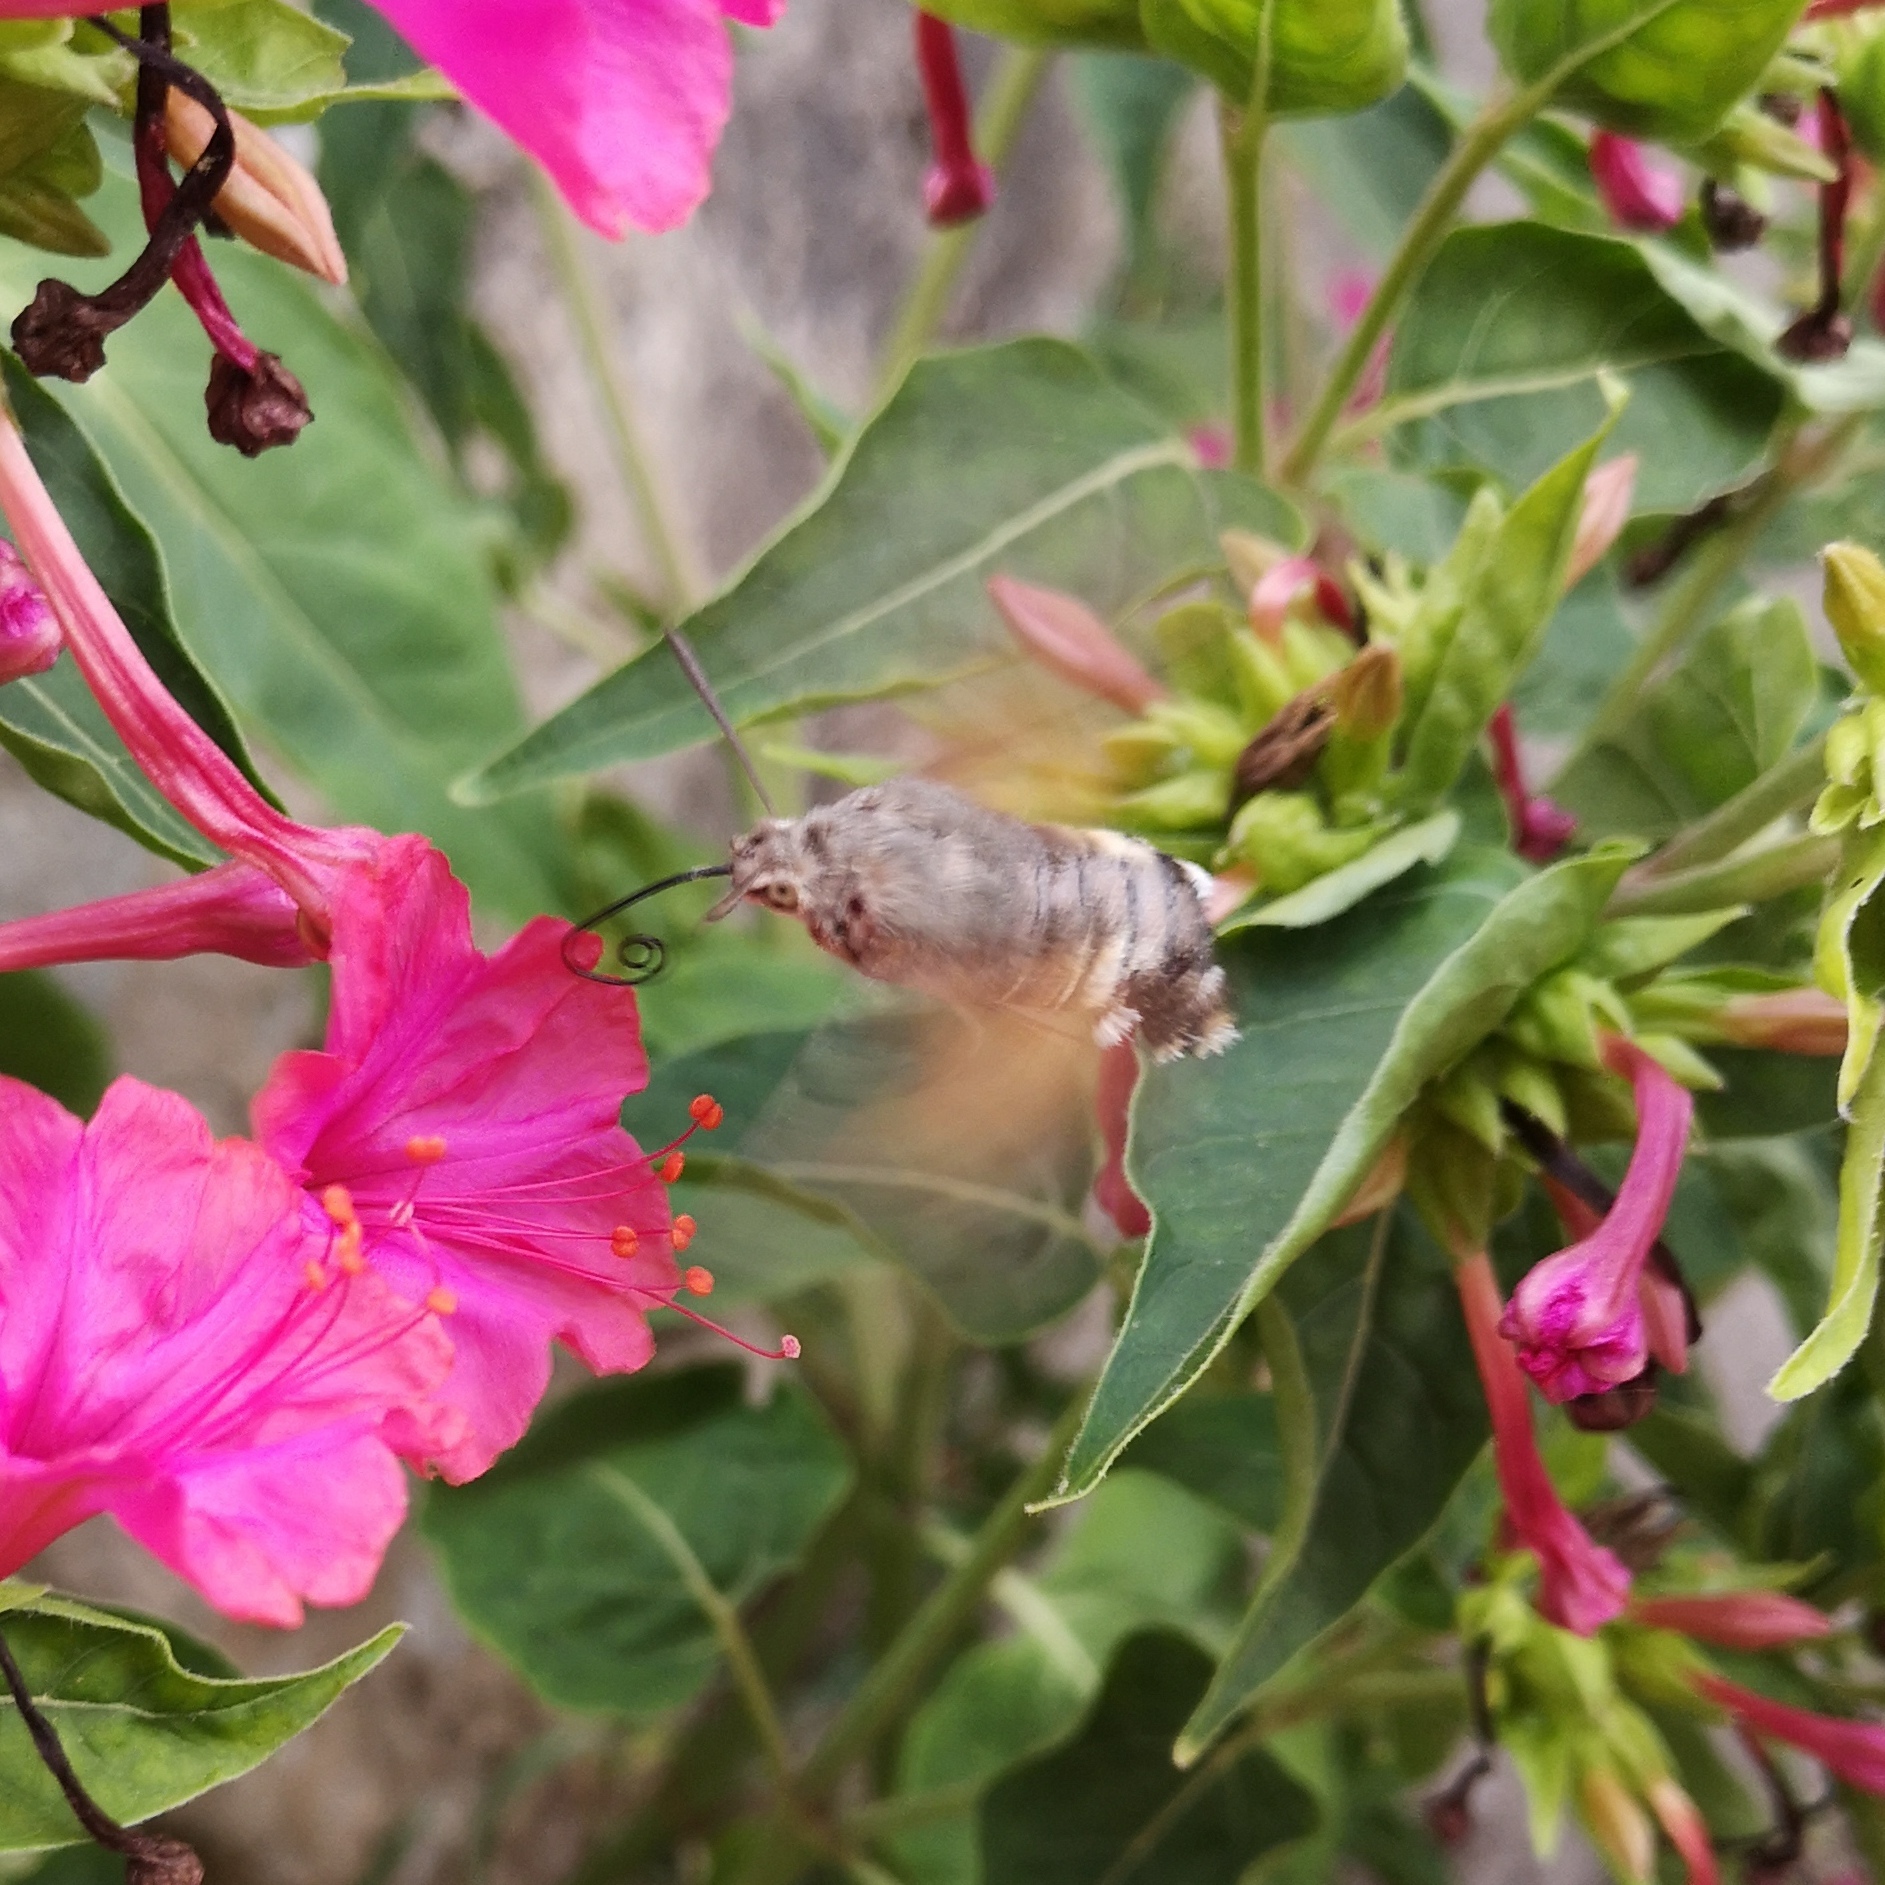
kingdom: Animalia
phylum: Arthropoda
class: Insecta
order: Lepidoptera
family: Sphingidae
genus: Macroglossum
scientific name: Macroglossum stellatarum
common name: Humming-bird hawk-moth
